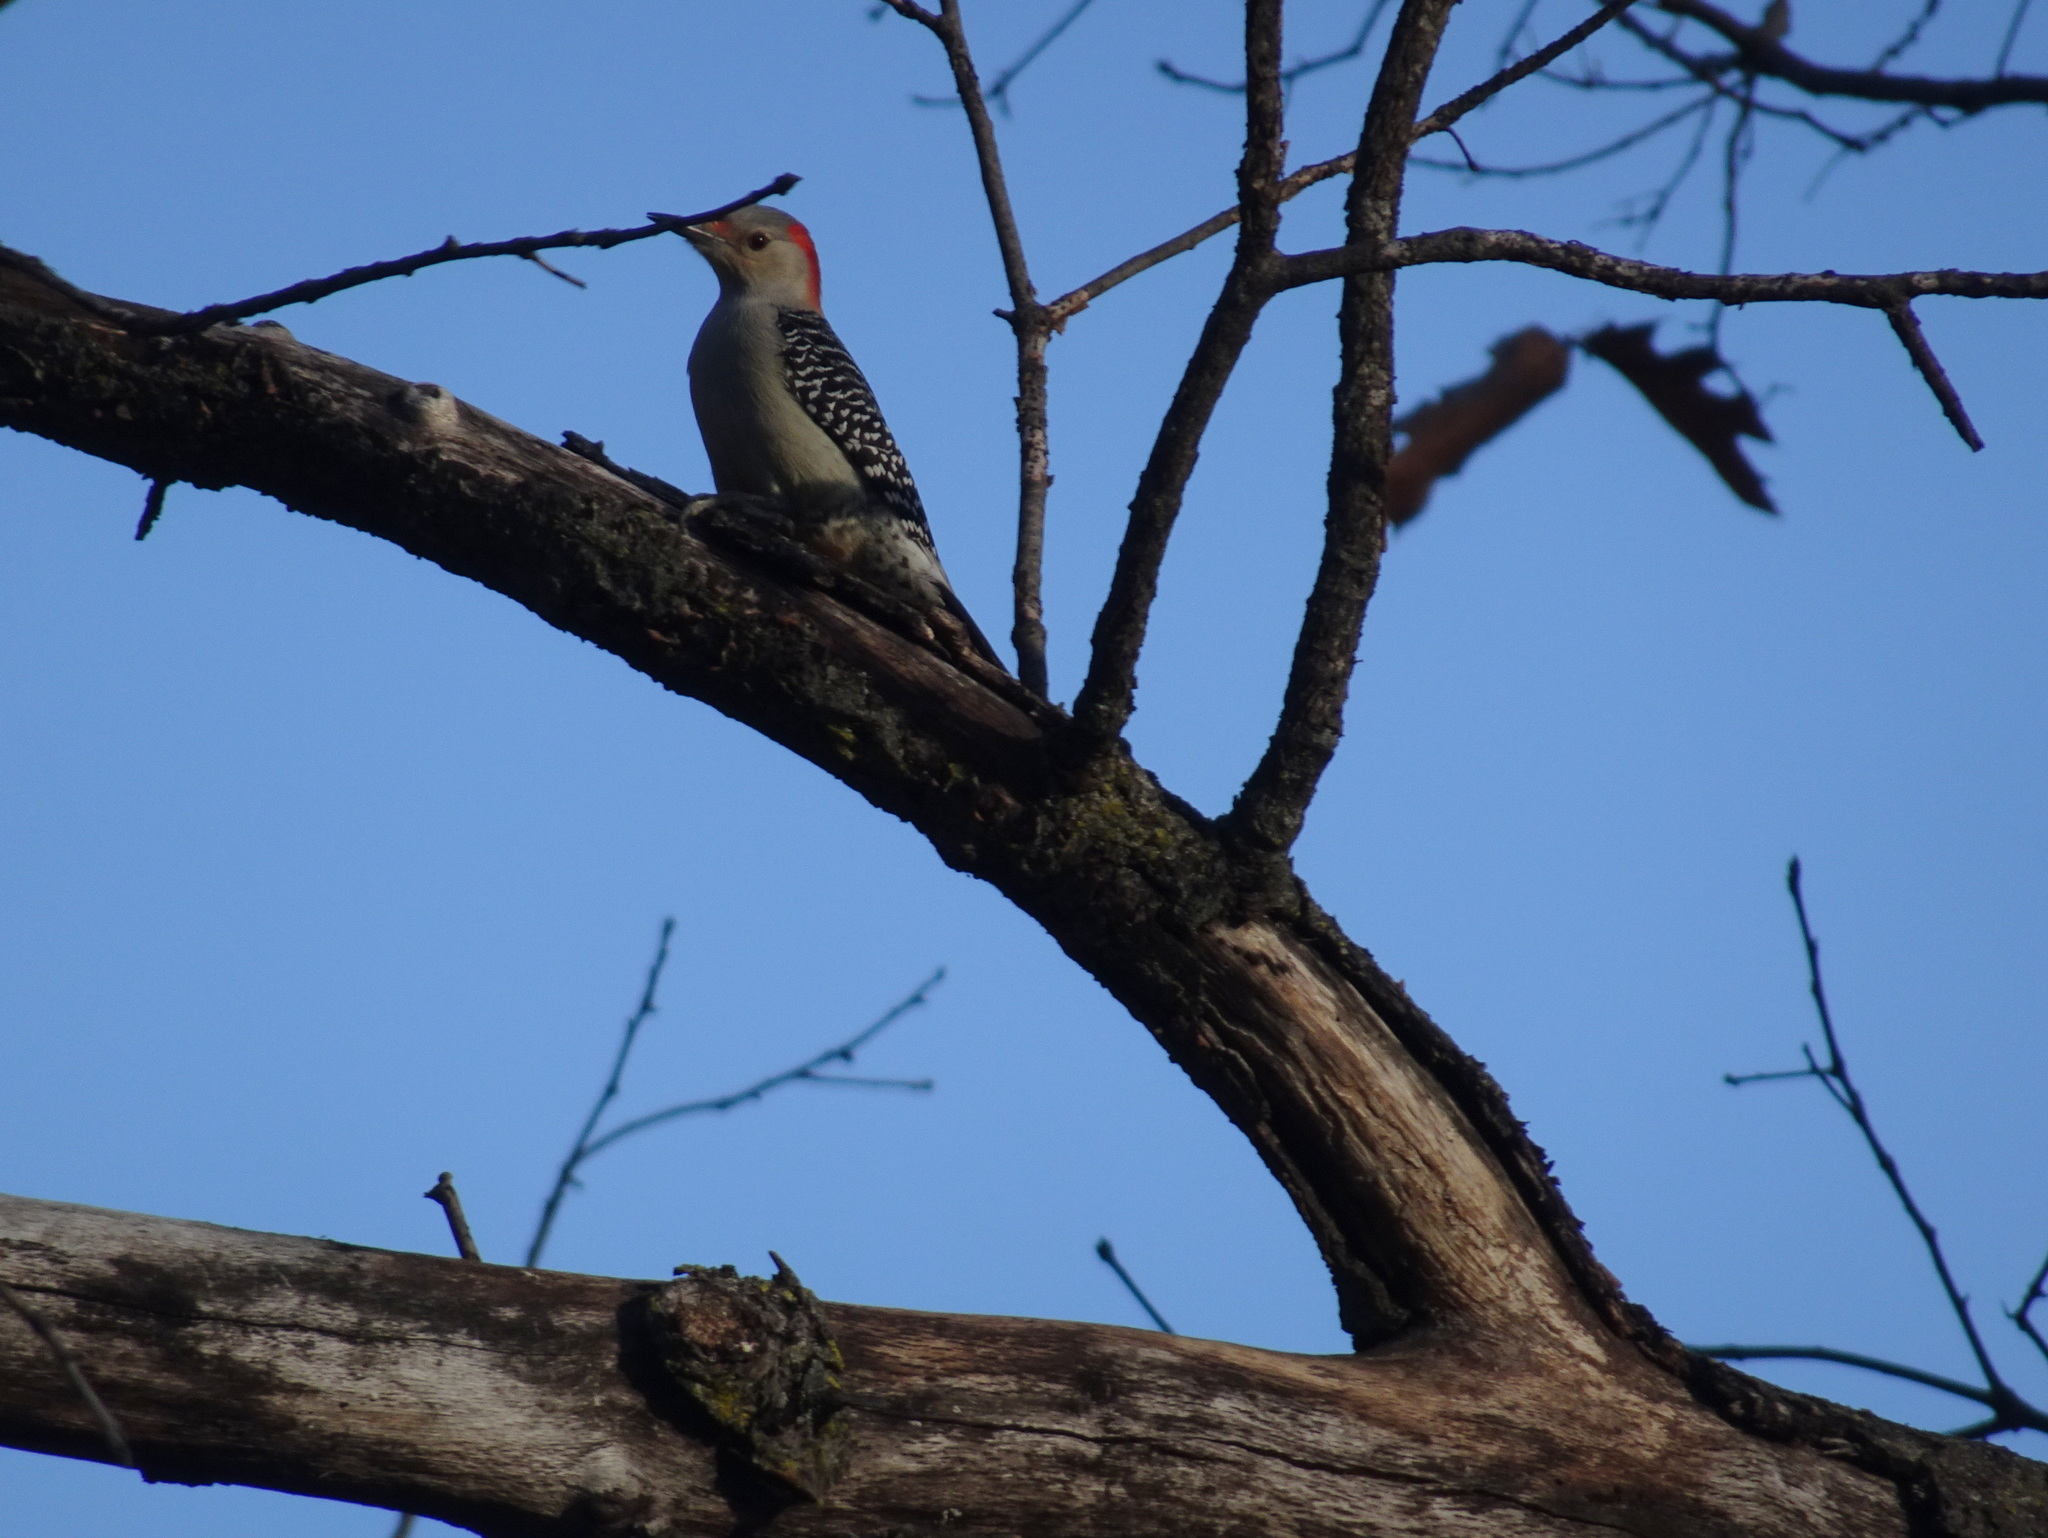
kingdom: Animalia
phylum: Chordata
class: Aves
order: Passeriformes
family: Turdidae
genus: Sialia
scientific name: Sialia sialis
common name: Eastern bluebird
